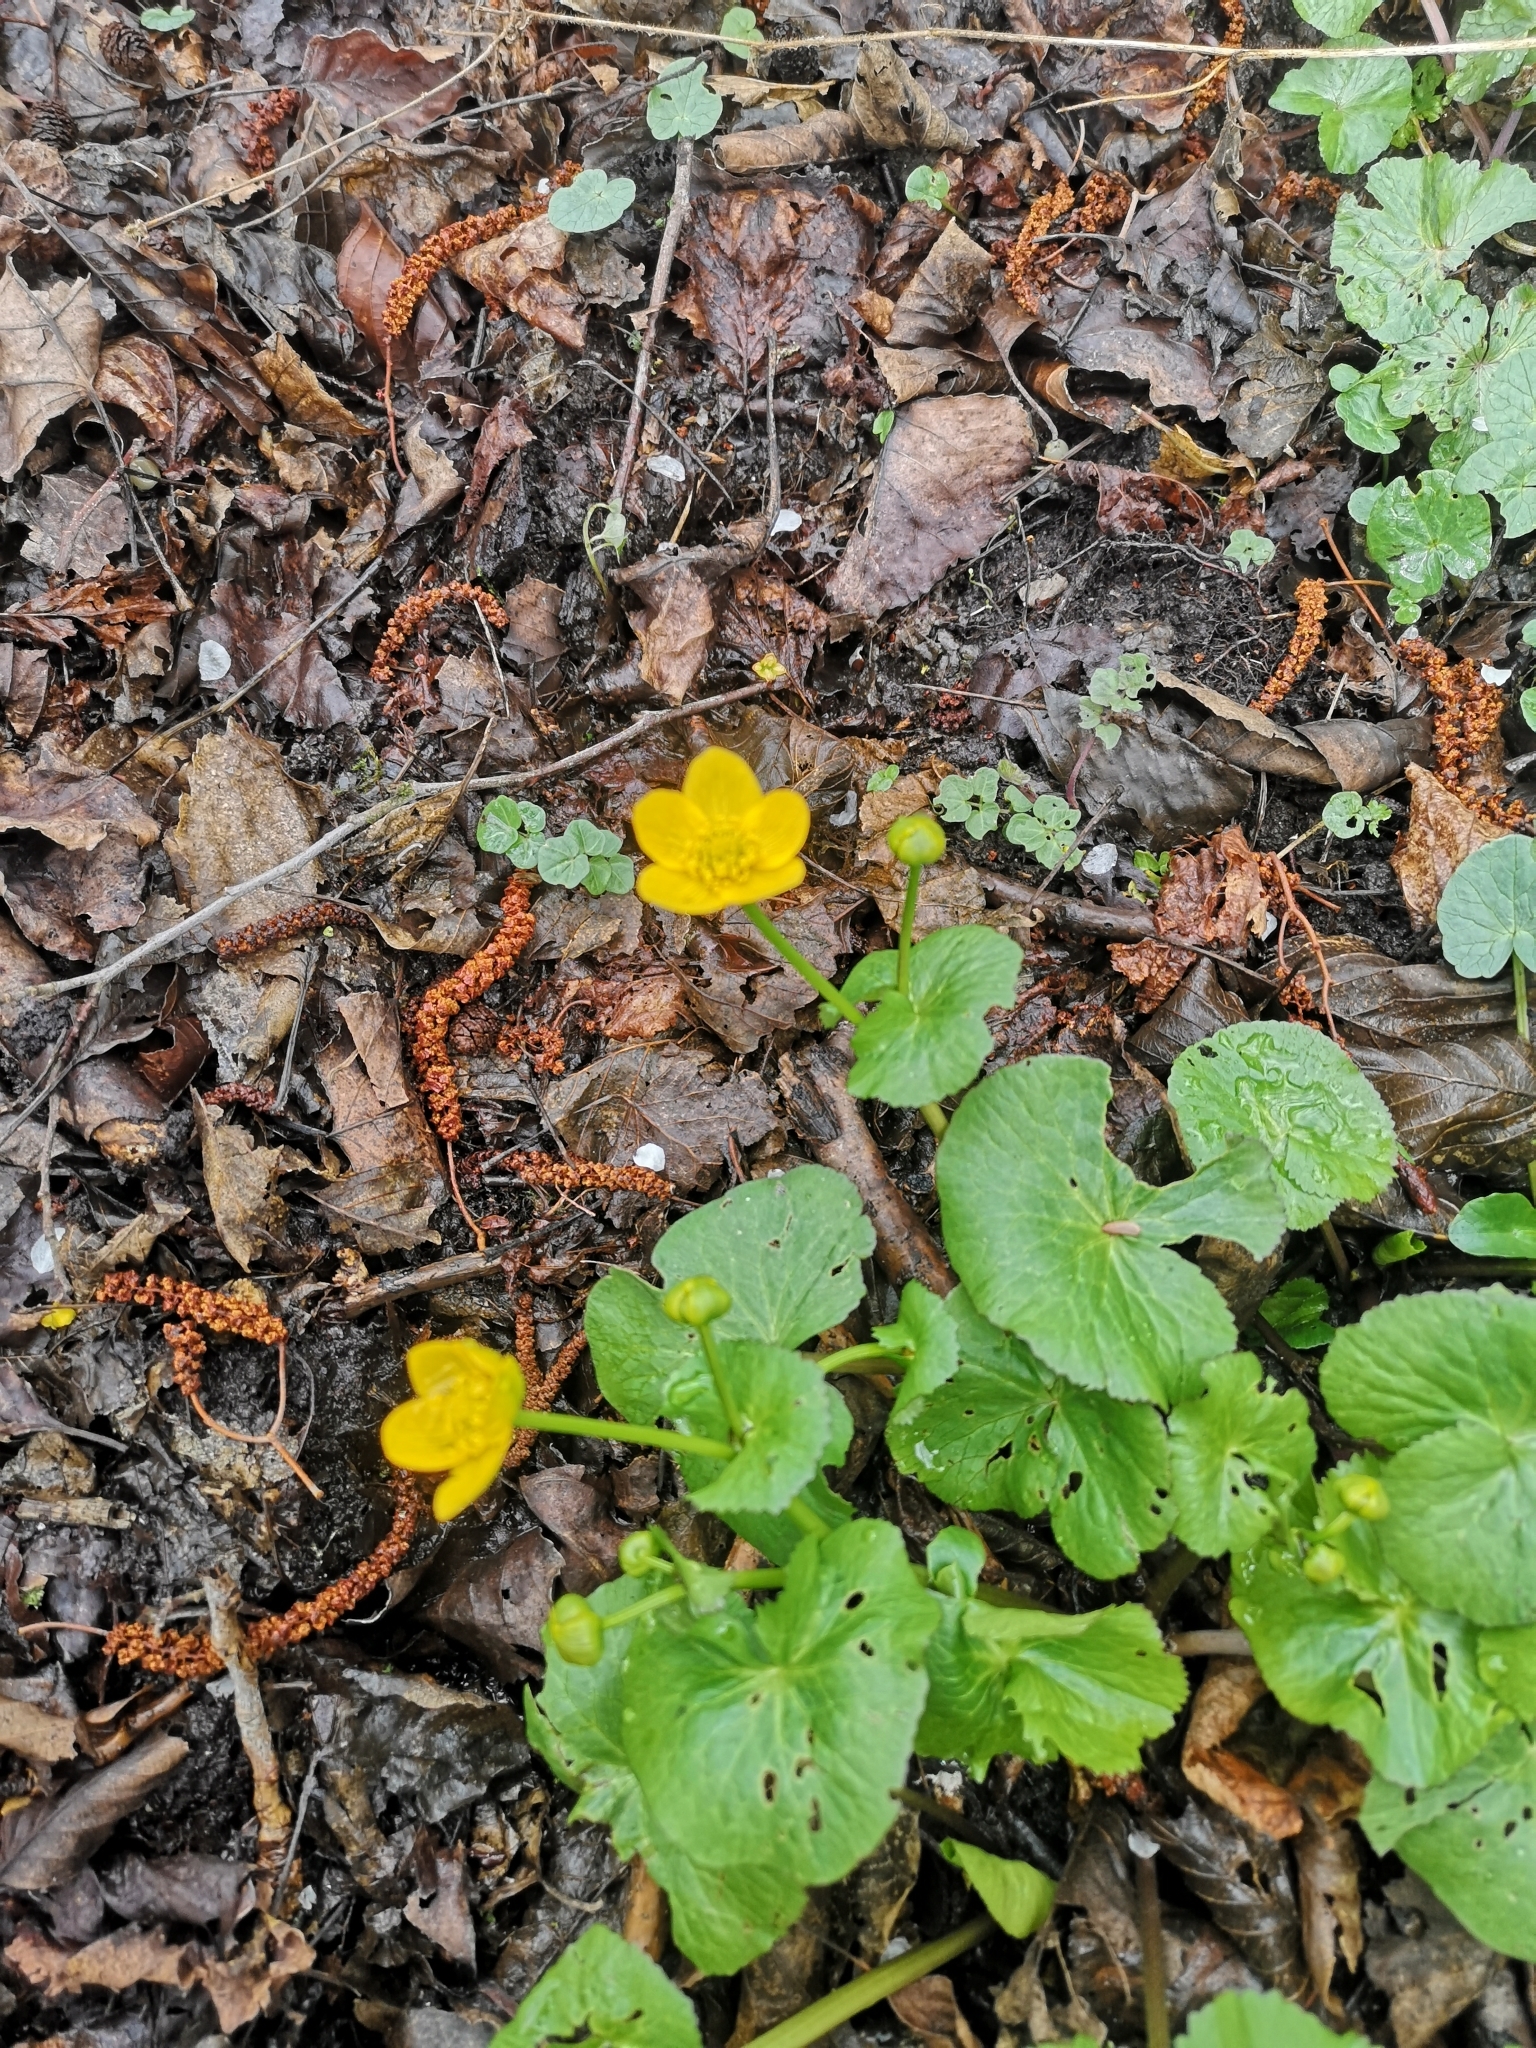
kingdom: Plantae
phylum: Tracheophyta
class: Magnoliopsida
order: Ranunculales
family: Ranunculaceae
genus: Caltha
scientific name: Caltha palustris
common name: Marsh marigold
